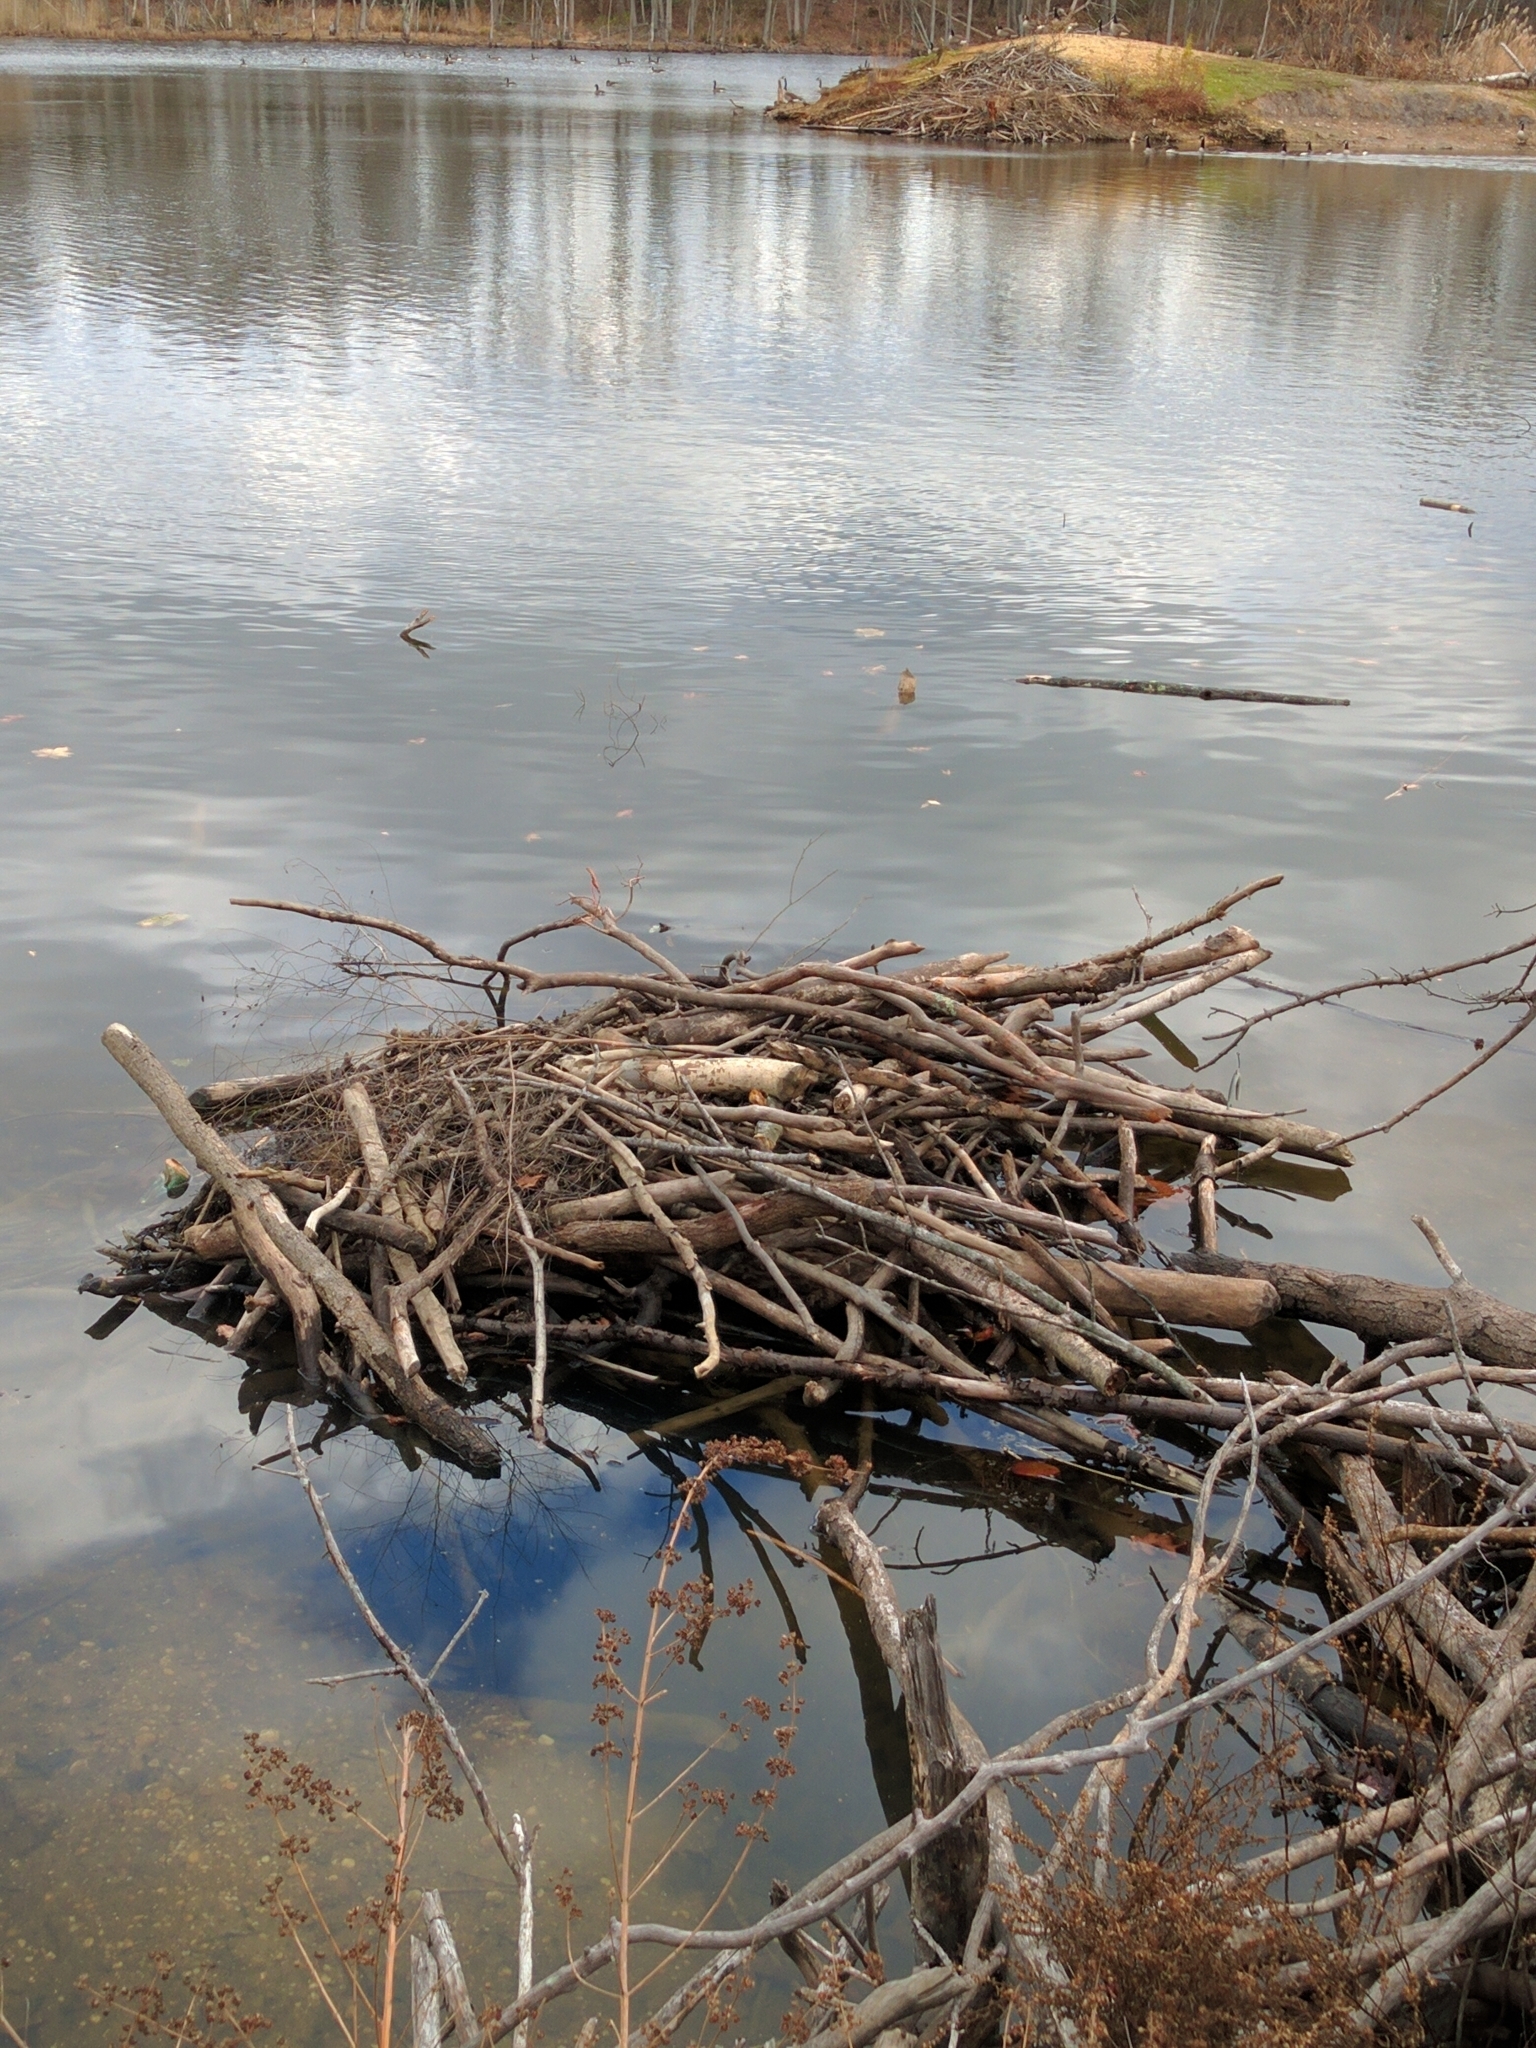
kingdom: Animalia
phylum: Chordata
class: Mammalia
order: Rodentia
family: Castoridae
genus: Castor
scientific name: Castor canadensis
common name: American beaver
